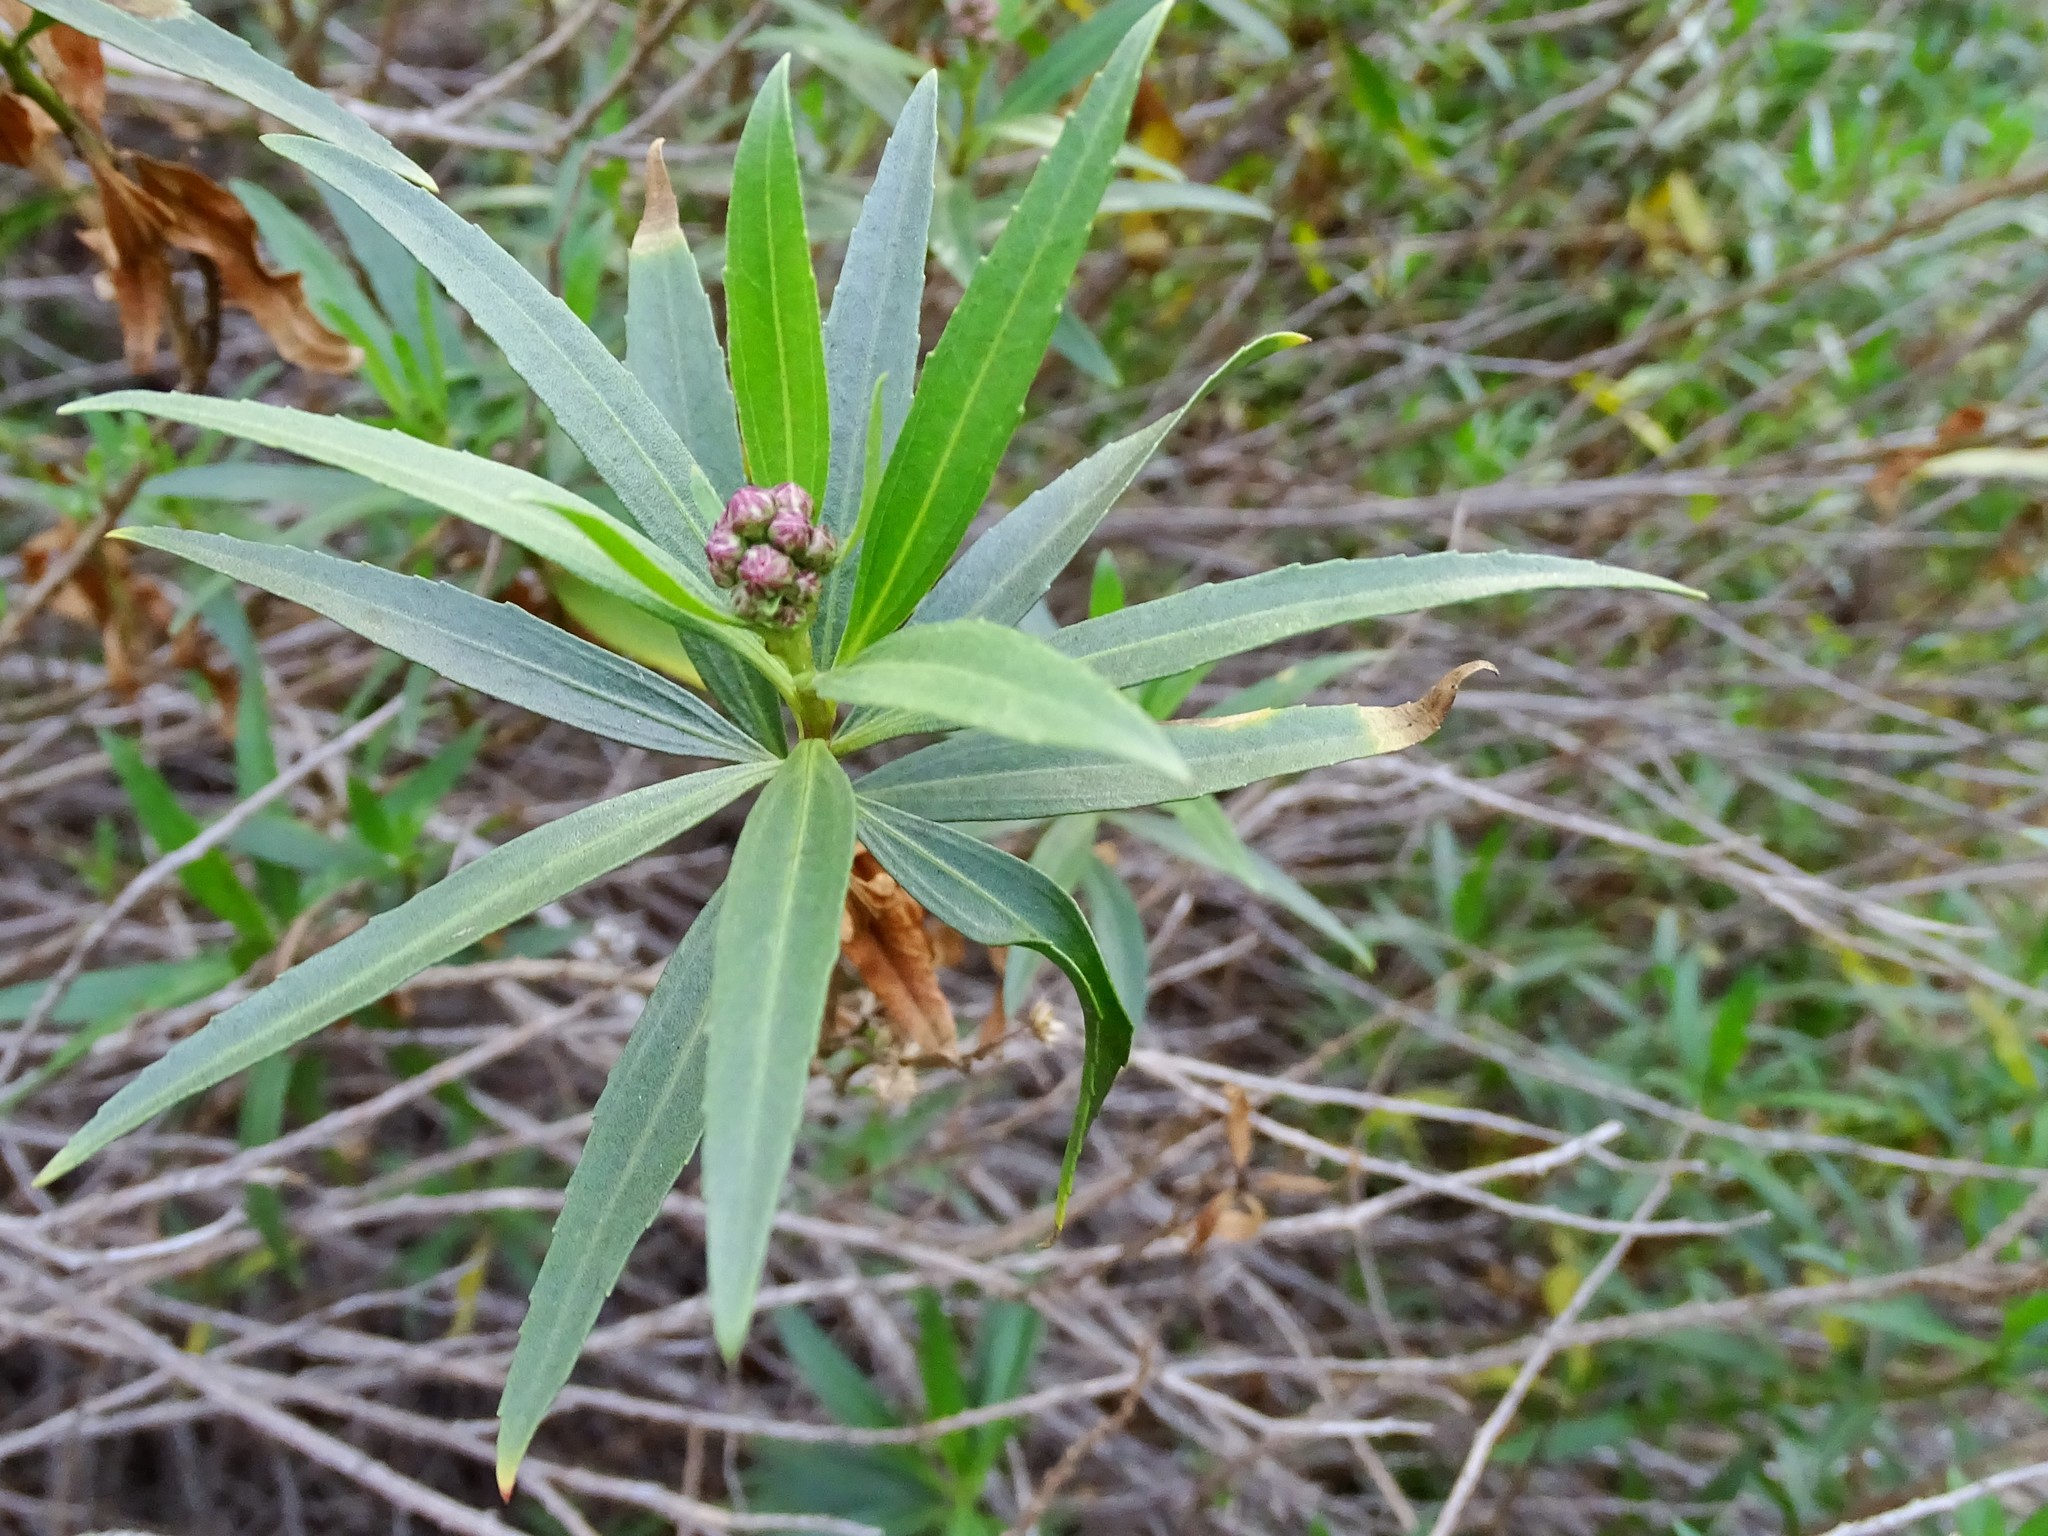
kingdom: Plantae
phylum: Tracheophyta
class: Magnoliopsida
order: Asterales
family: Asteraceae
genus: Baccharis
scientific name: Baccharis salicifolia
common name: Sticky baccharis
